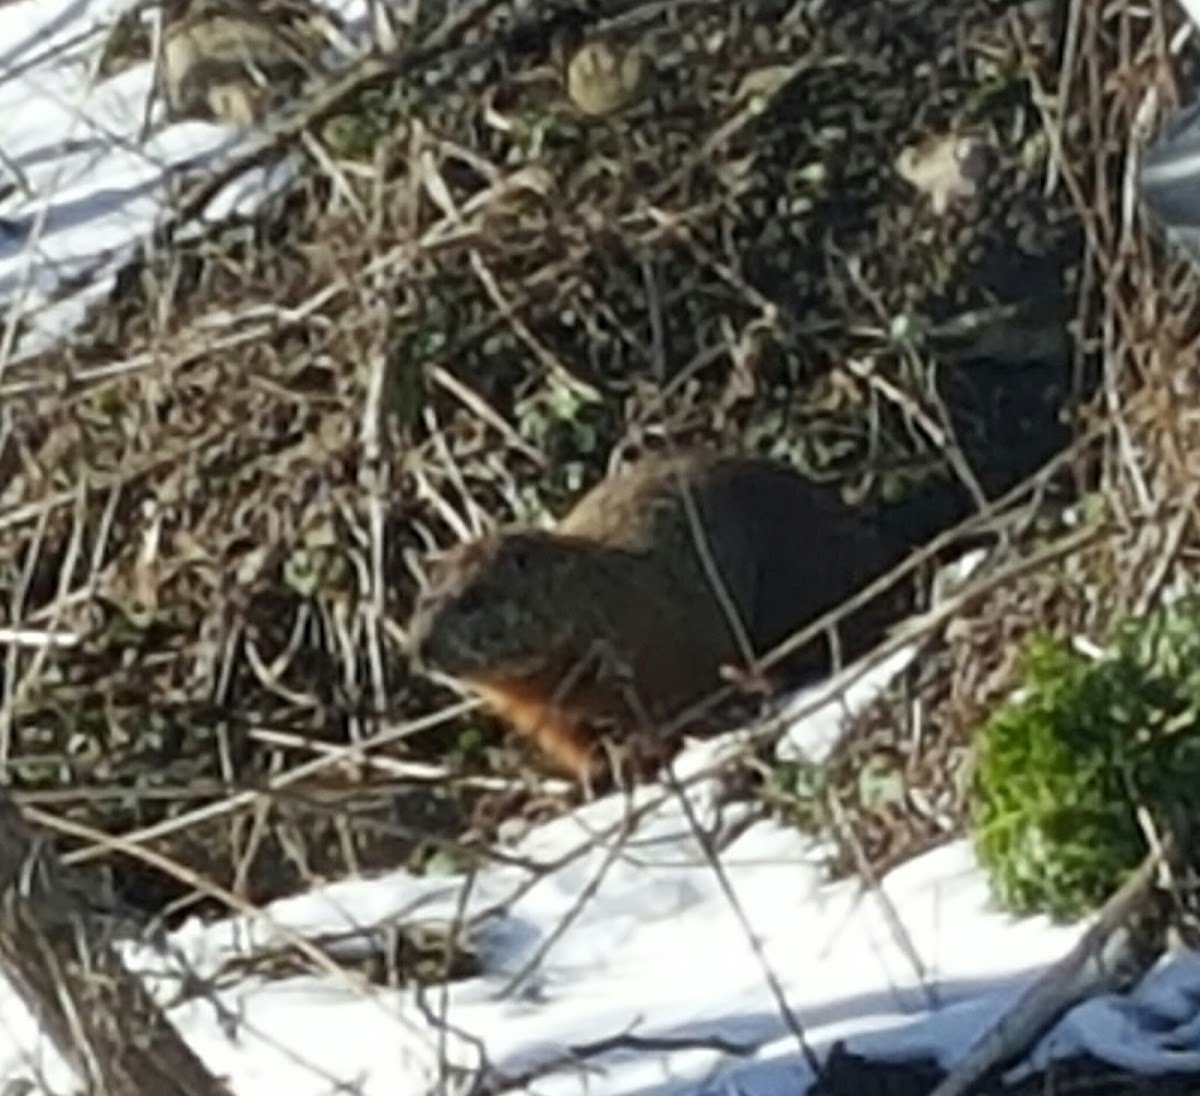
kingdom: Animalia
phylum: Chordata
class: Mammalia
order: Rodentia
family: Sciuridae
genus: Marmota
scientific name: Marmota monax
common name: Groundhog
